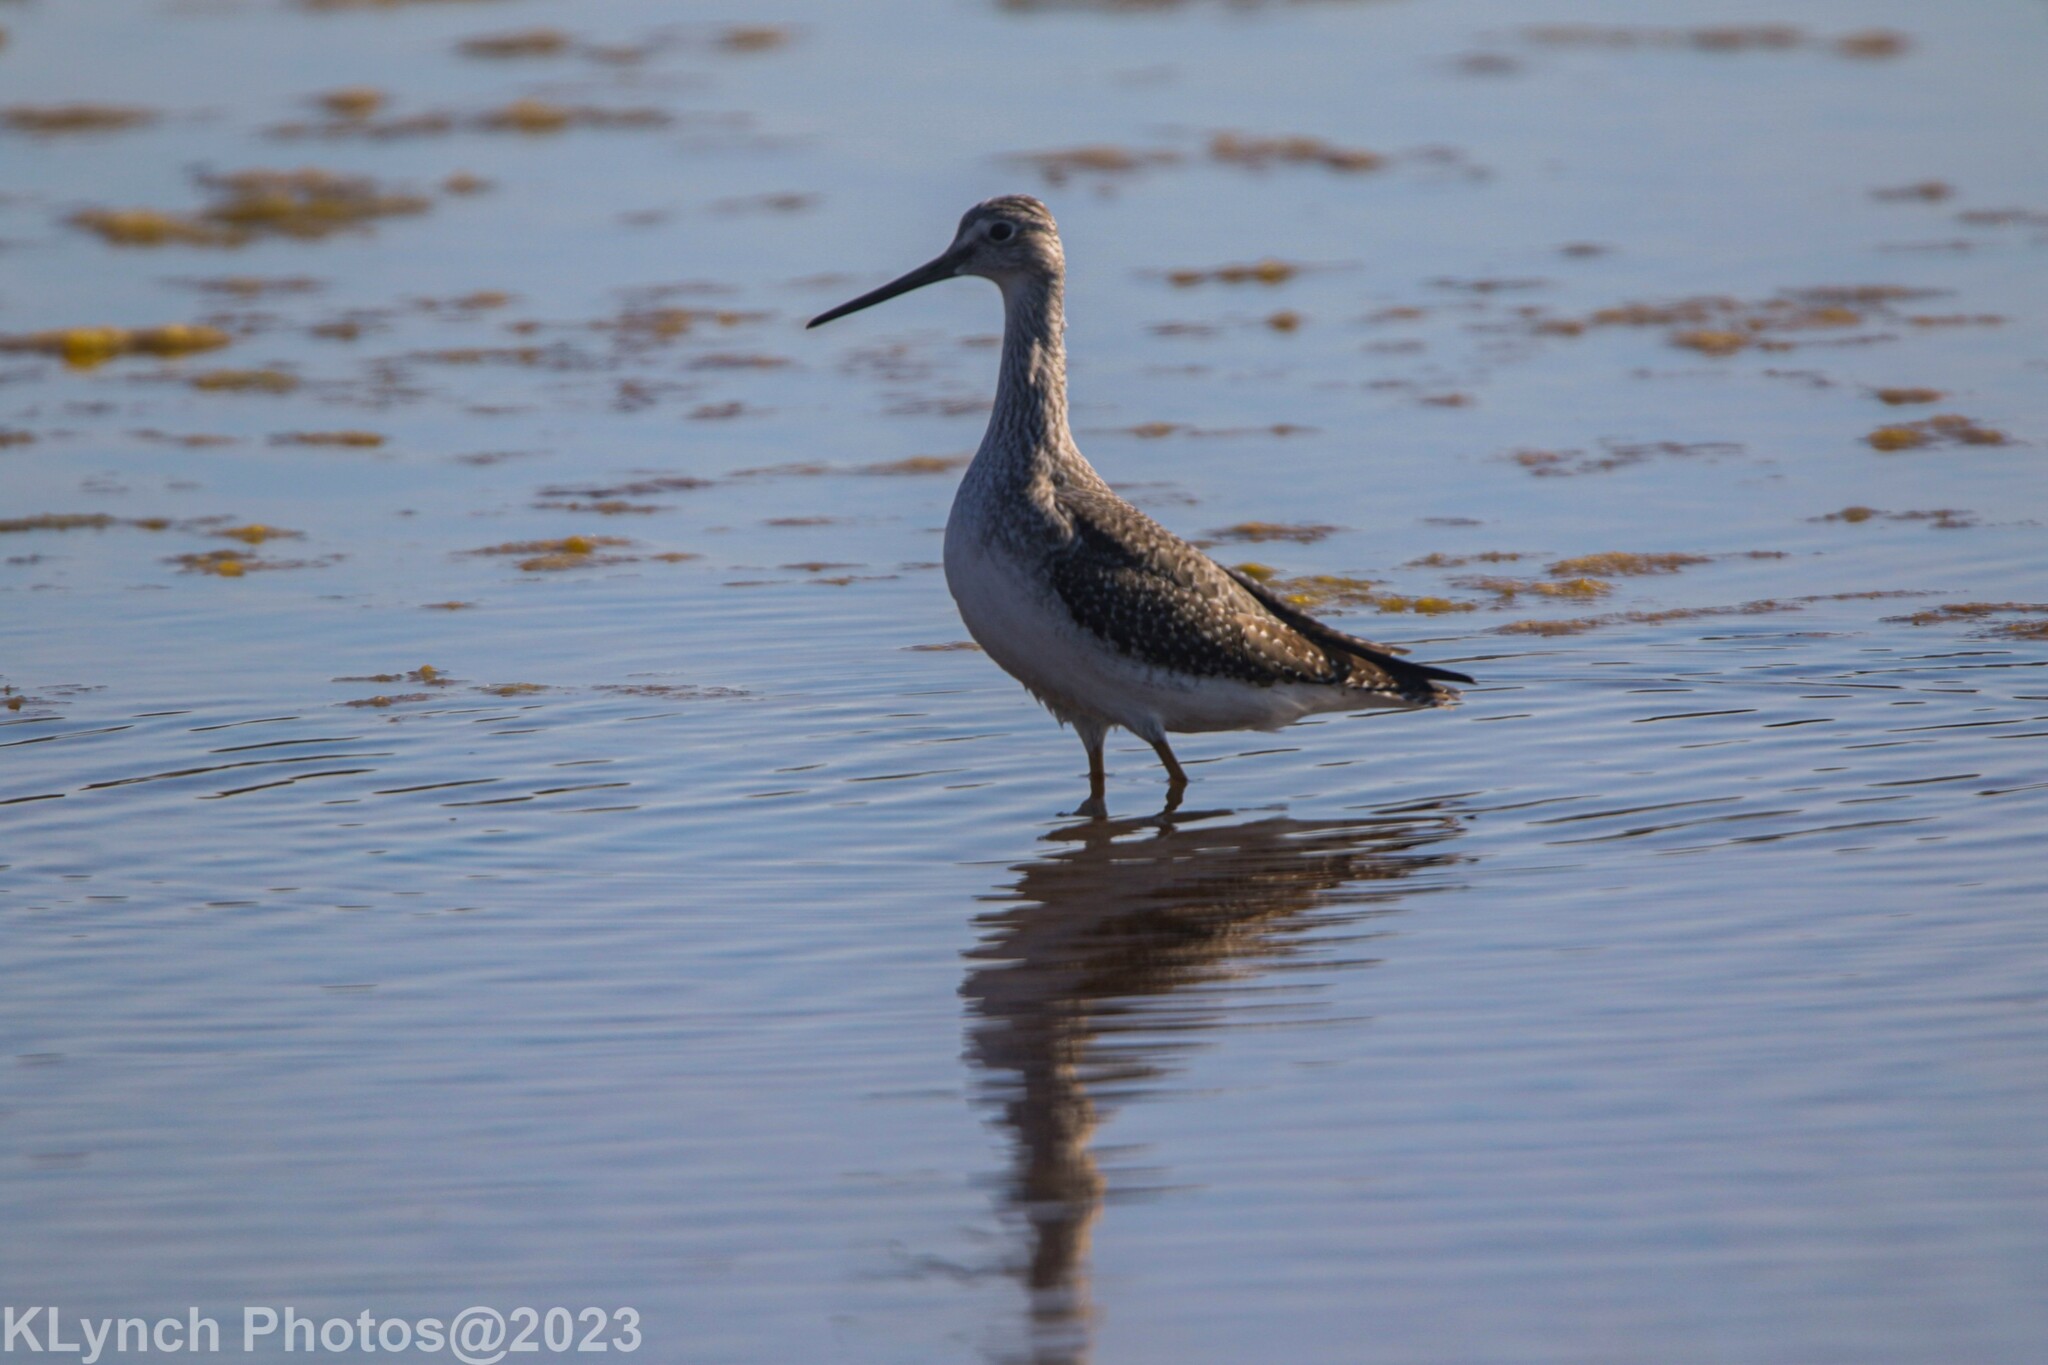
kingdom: Animalia
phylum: Chordata
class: Aves
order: Charadriiformes
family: Scolopacidae
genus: Tringa
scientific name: Tringa melanoleuca
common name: Greater yellowlegs
